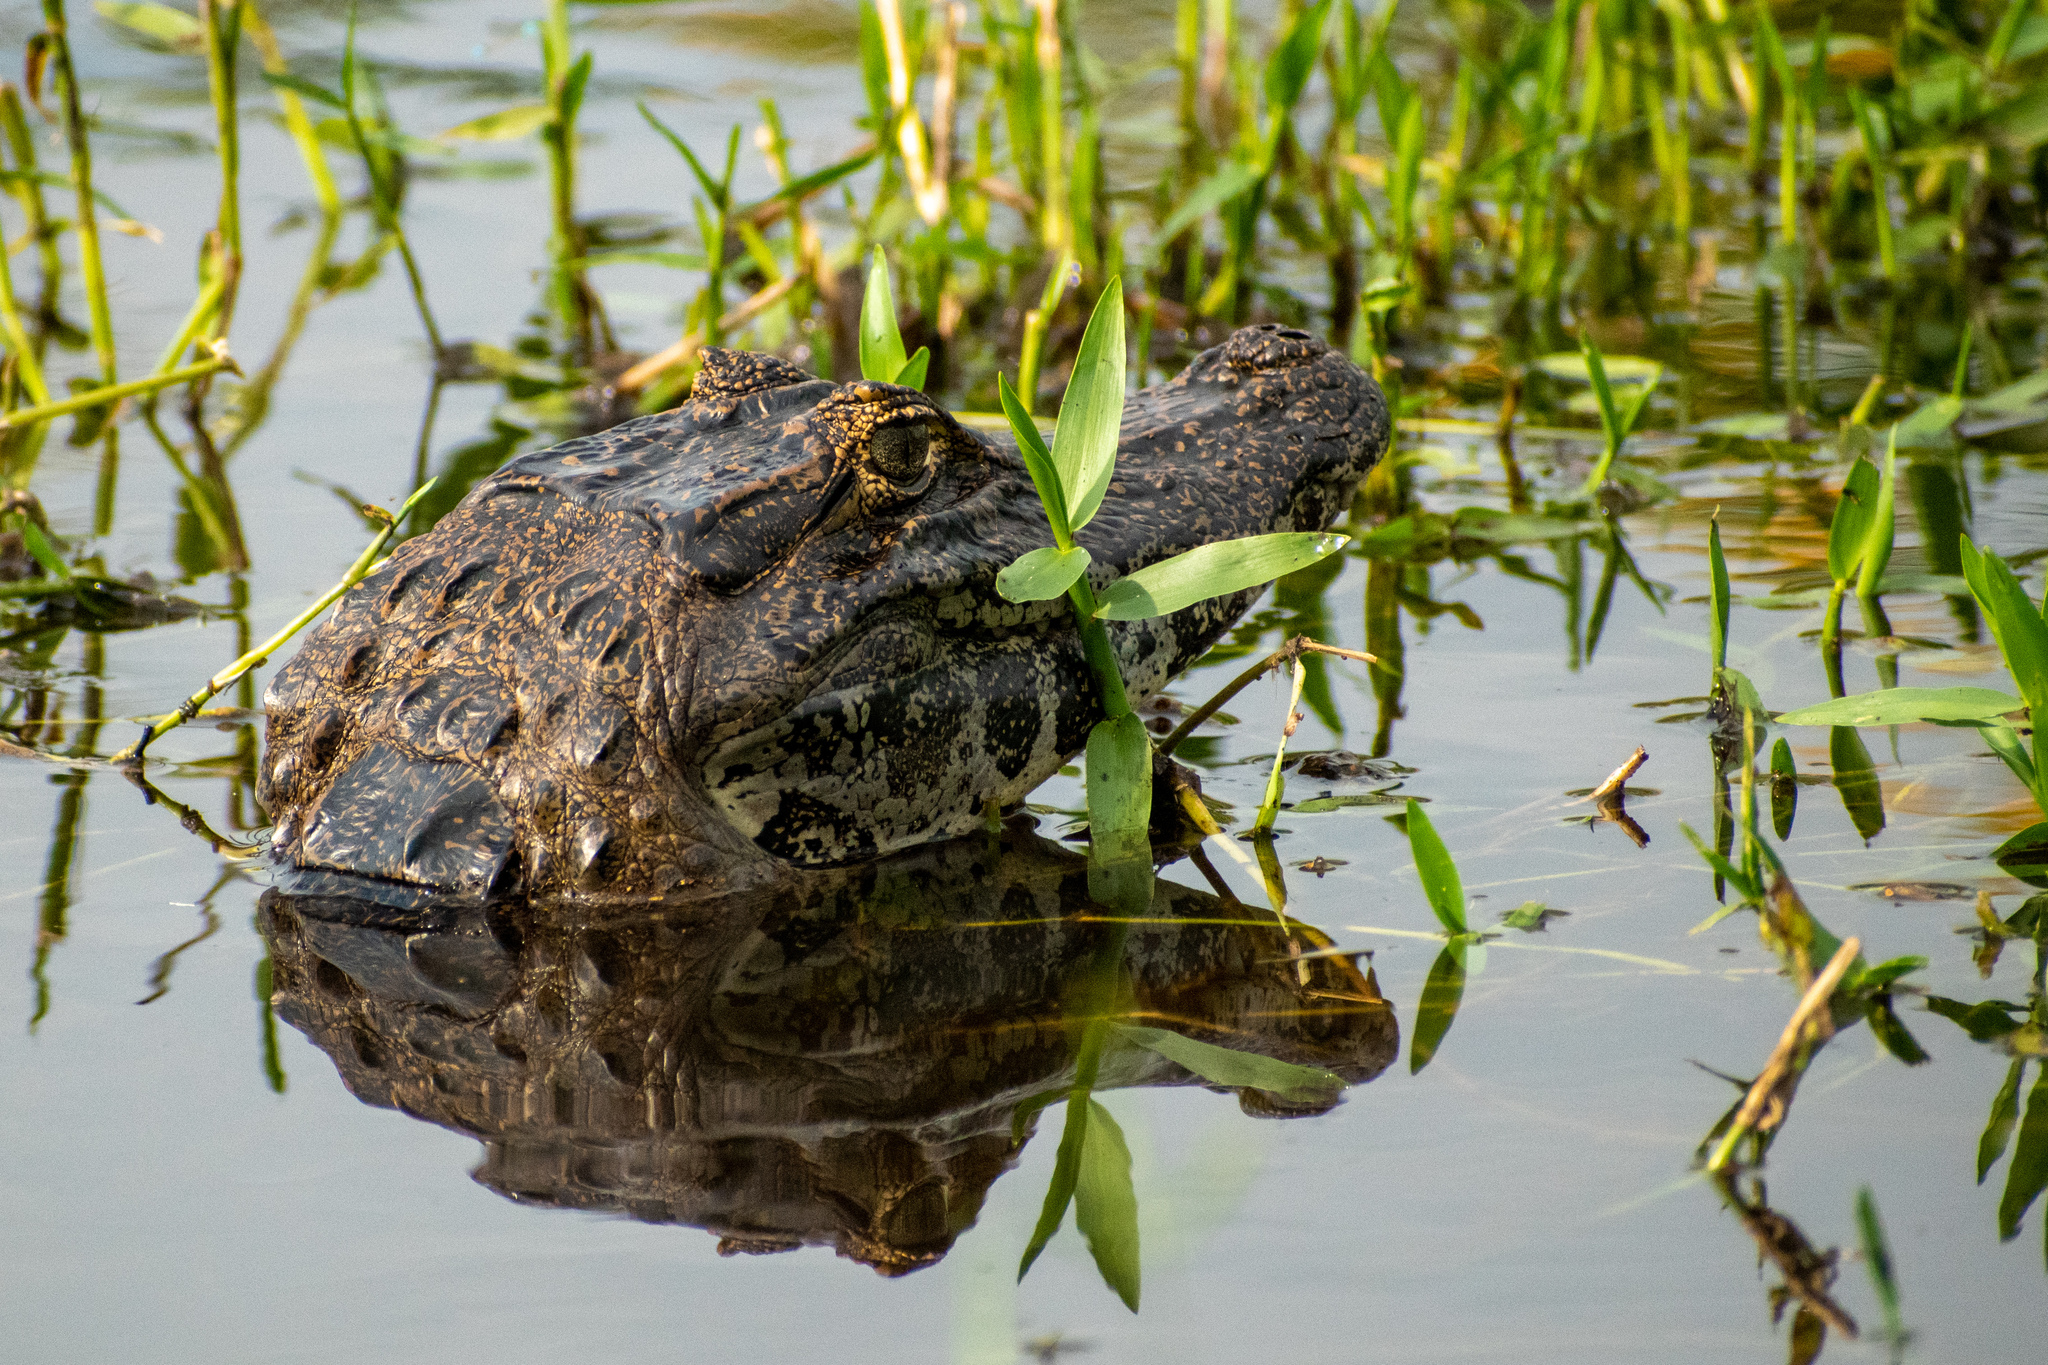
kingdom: Animalia
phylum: Chordata
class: Crocodylia
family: Alligatoridae
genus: Caiman
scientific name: Caiman yacare
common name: Yacare caiman
